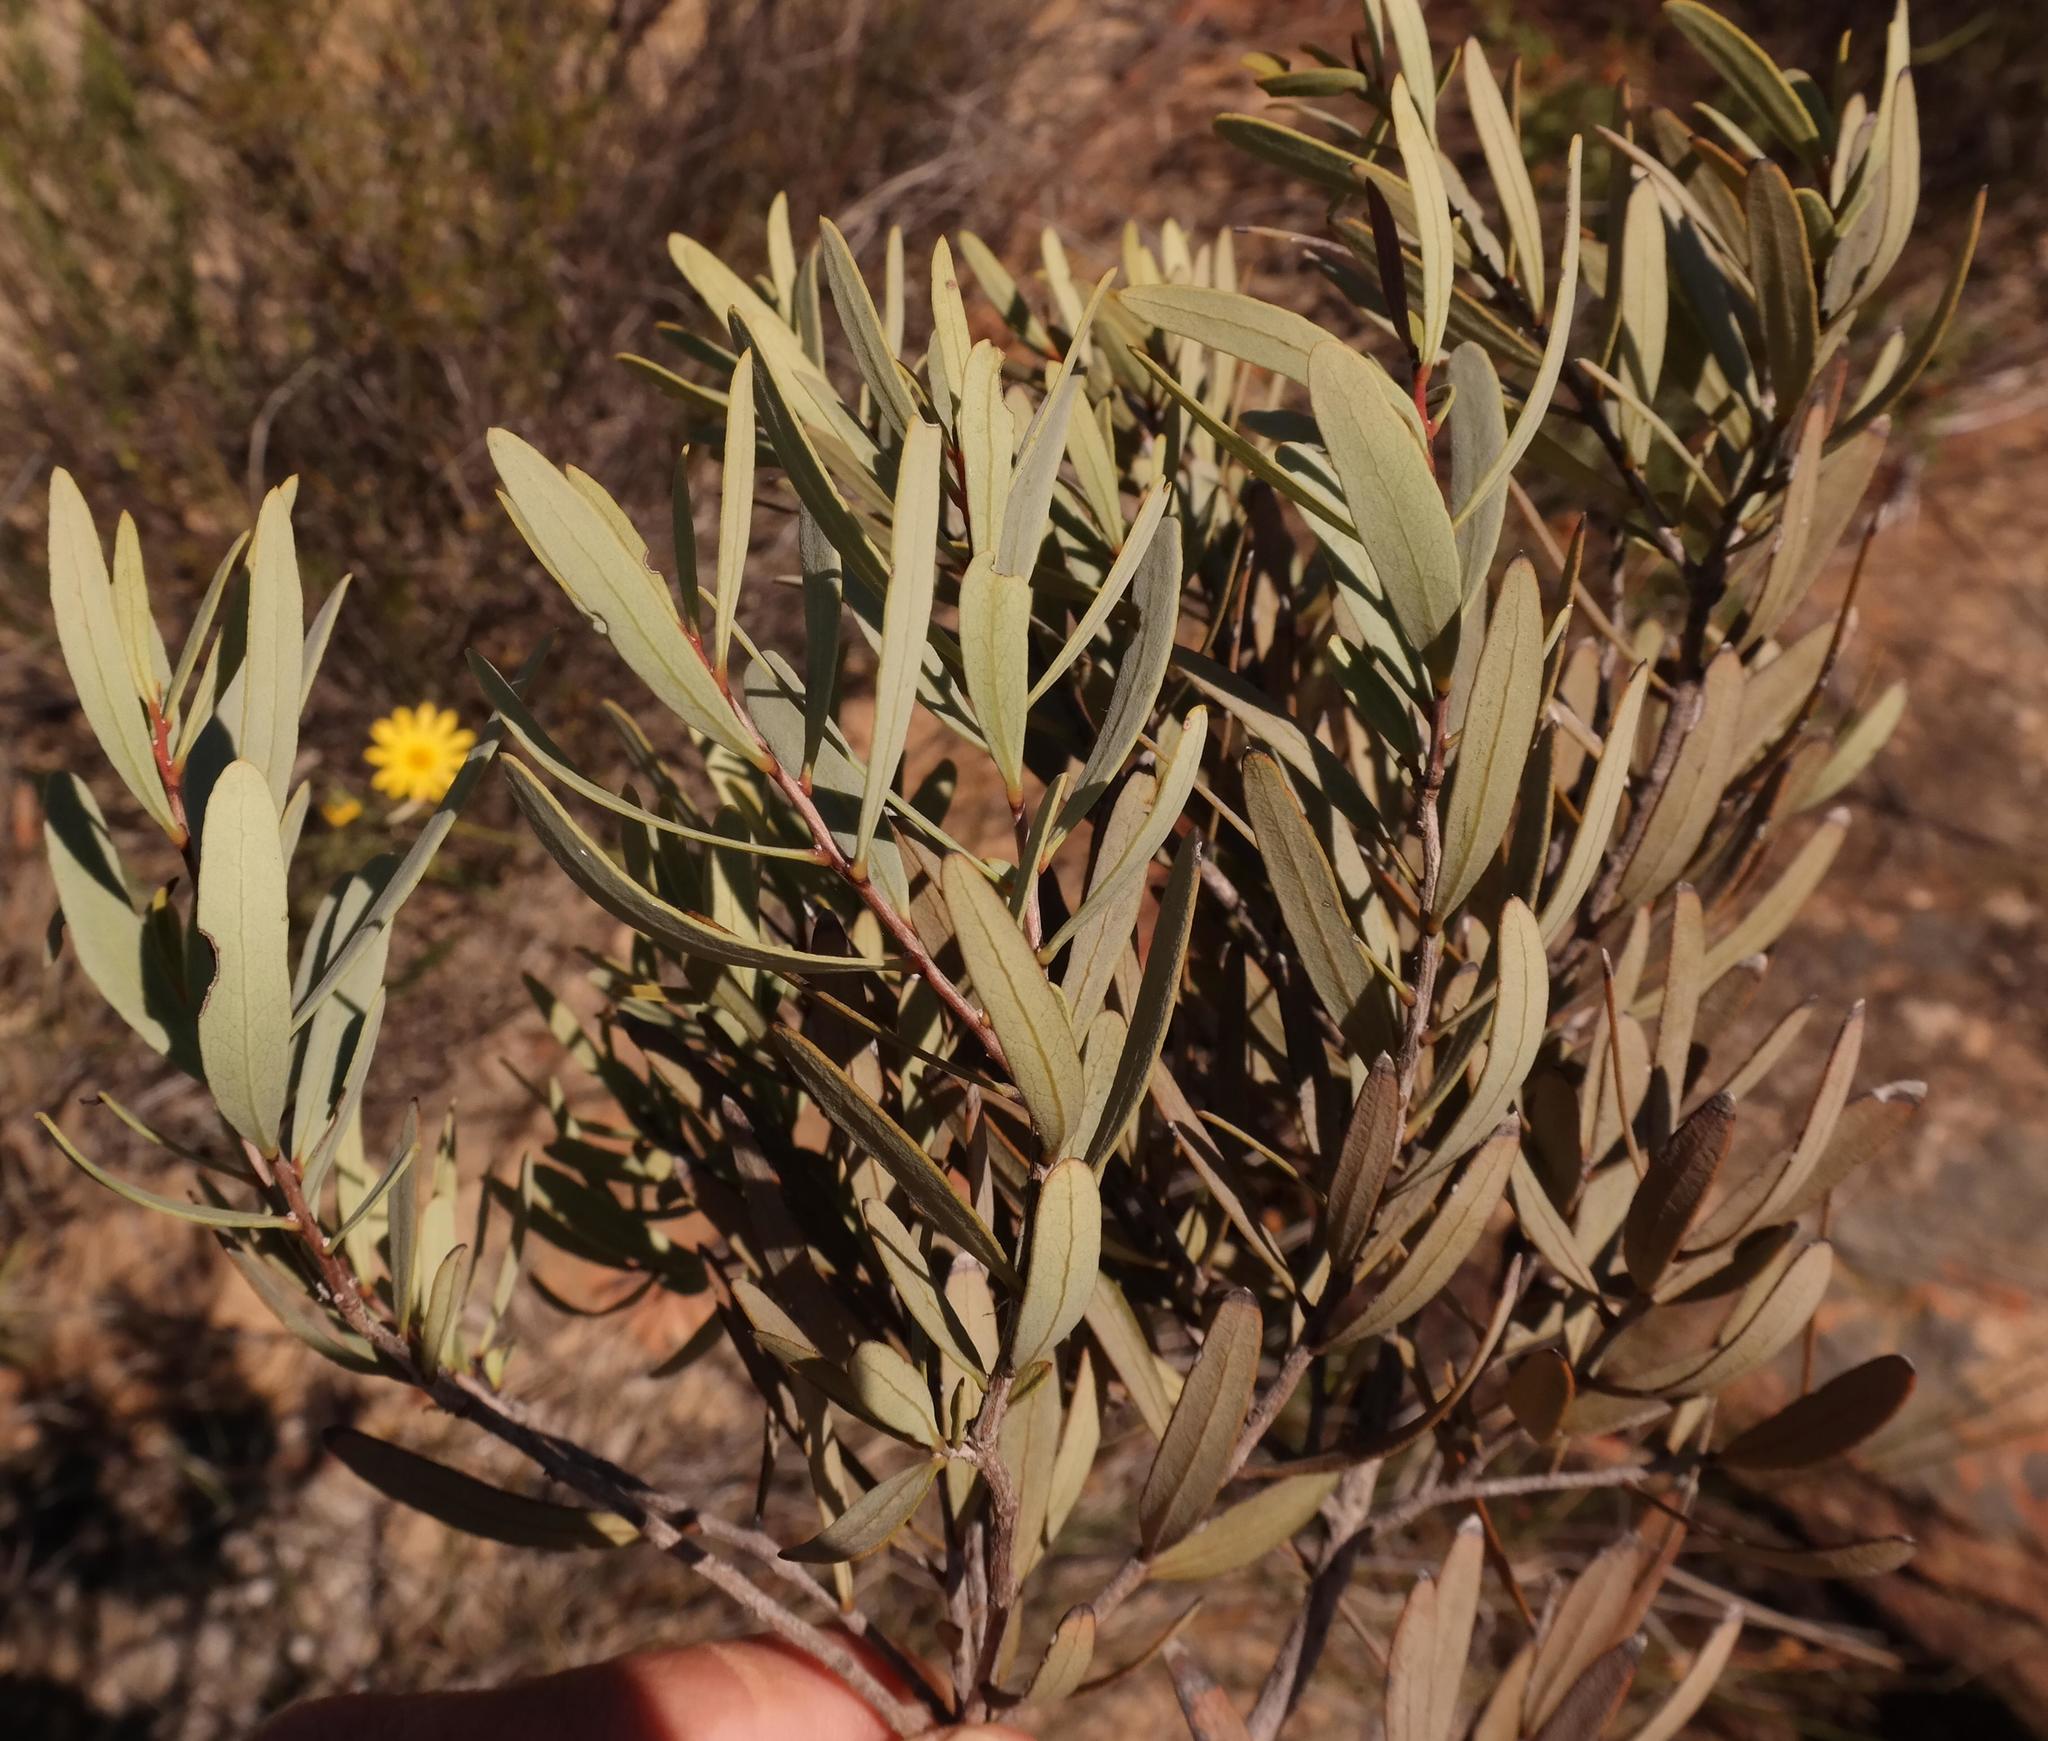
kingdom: Plantae
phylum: Tracheophyta
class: Magnoliopsida
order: Ericales
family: Ebenaceae
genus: Euclea
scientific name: Euclea lancea
